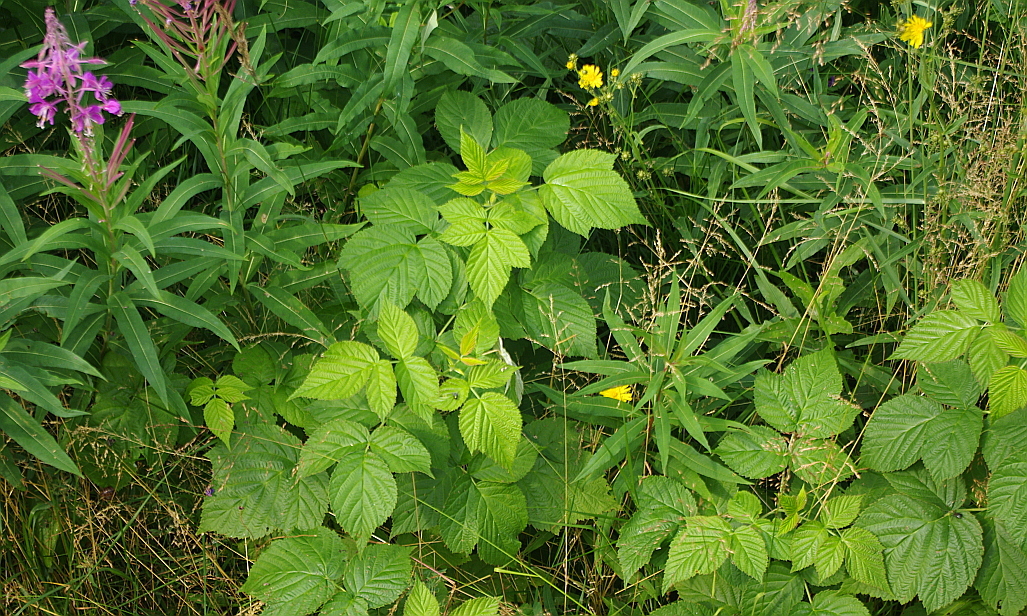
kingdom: Plantae
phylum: Tracheophyta
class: Magnoliopsida
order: Rosales
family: Rosaceae
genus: Rubus
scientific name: Rubus idaeus
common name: Raspberry
